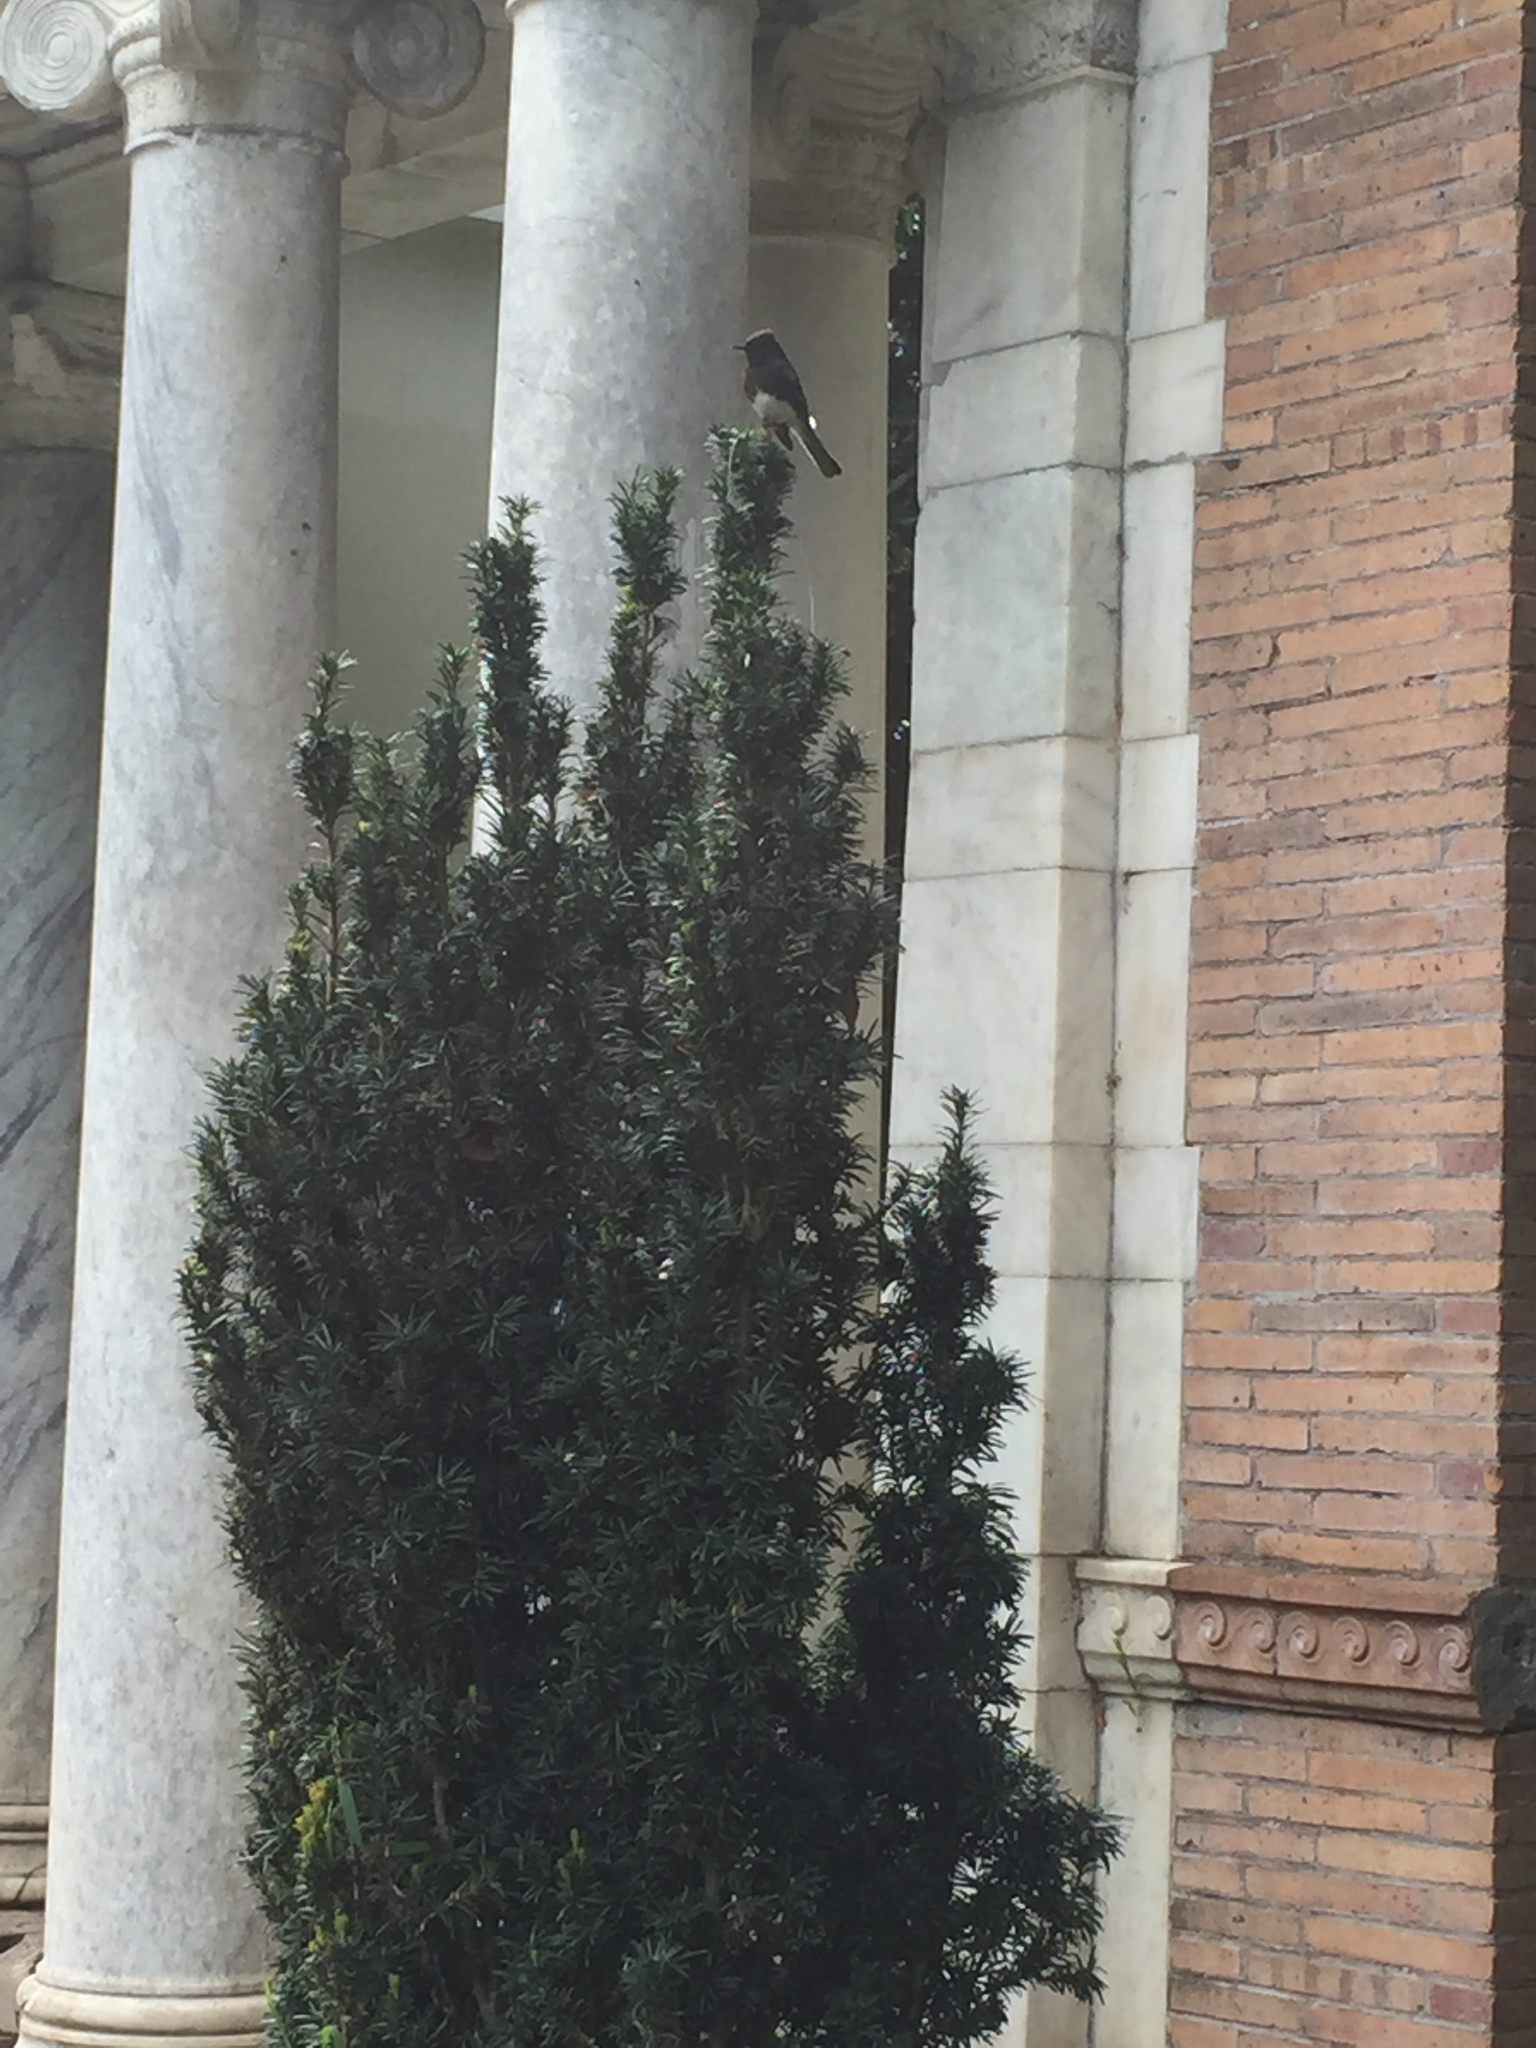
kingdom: Animalia
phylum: Chordata
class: Aves
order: Passeriformes
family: Tyrannidae
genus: Sayornis
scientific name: Sayornis nigricans
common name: Black phoebe
